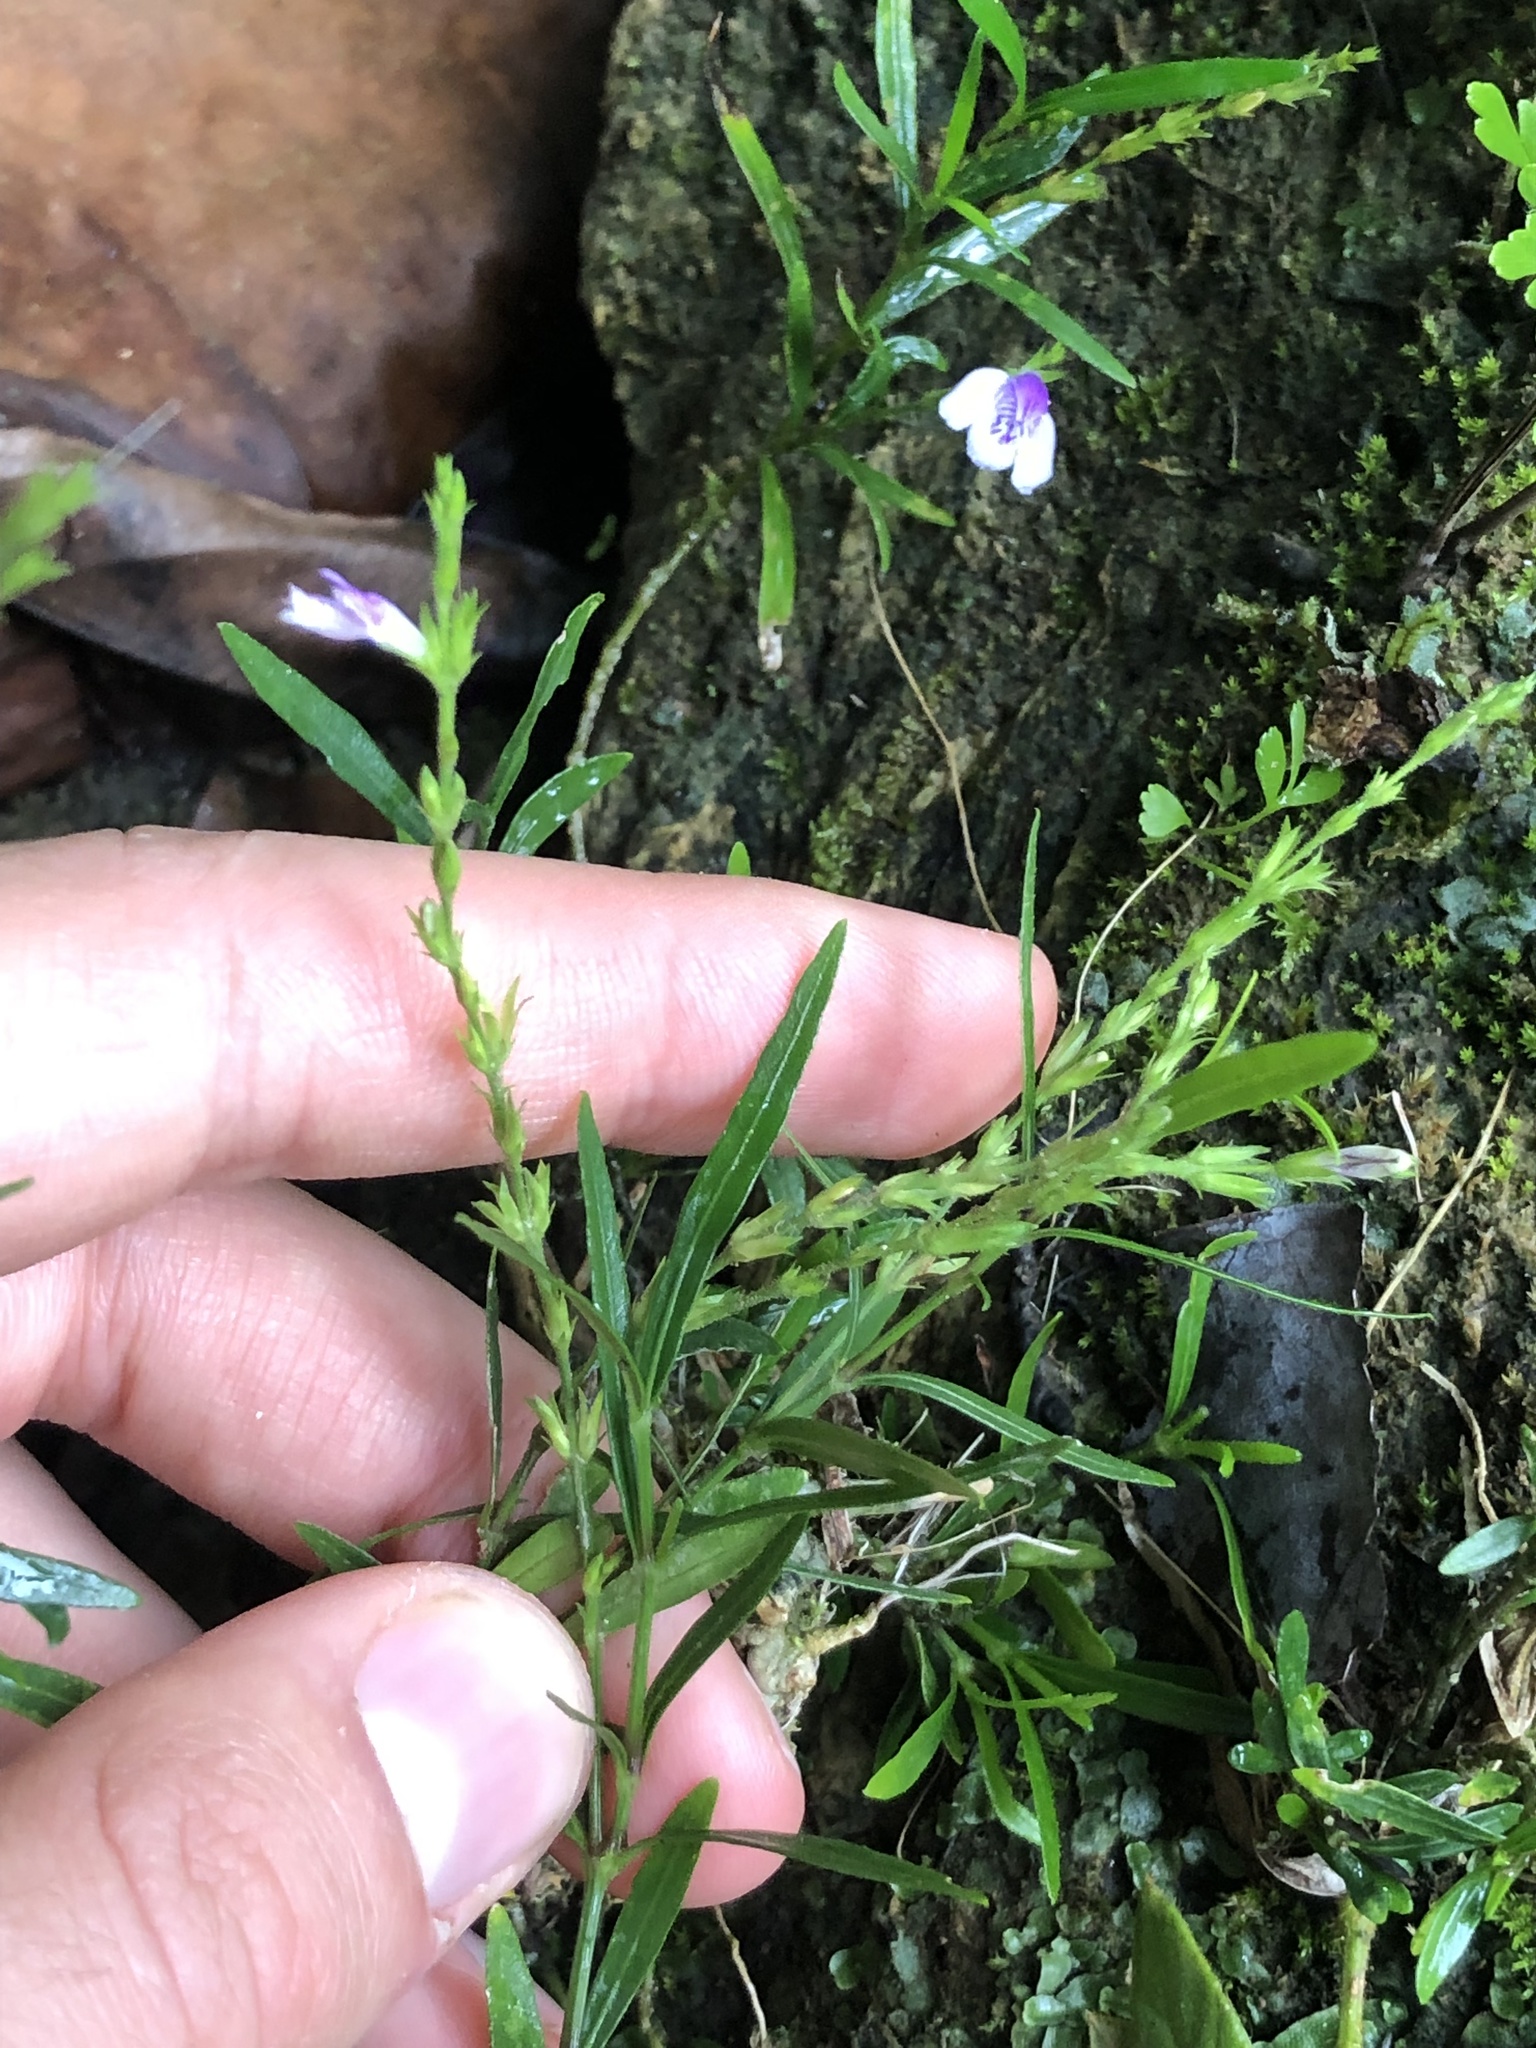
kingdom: Plantae
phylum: Tracheophyta
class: Magnoliopsida
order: Lamiales
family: Acanthaceae
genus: Dianthera
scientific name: Dianthera lindeniana
